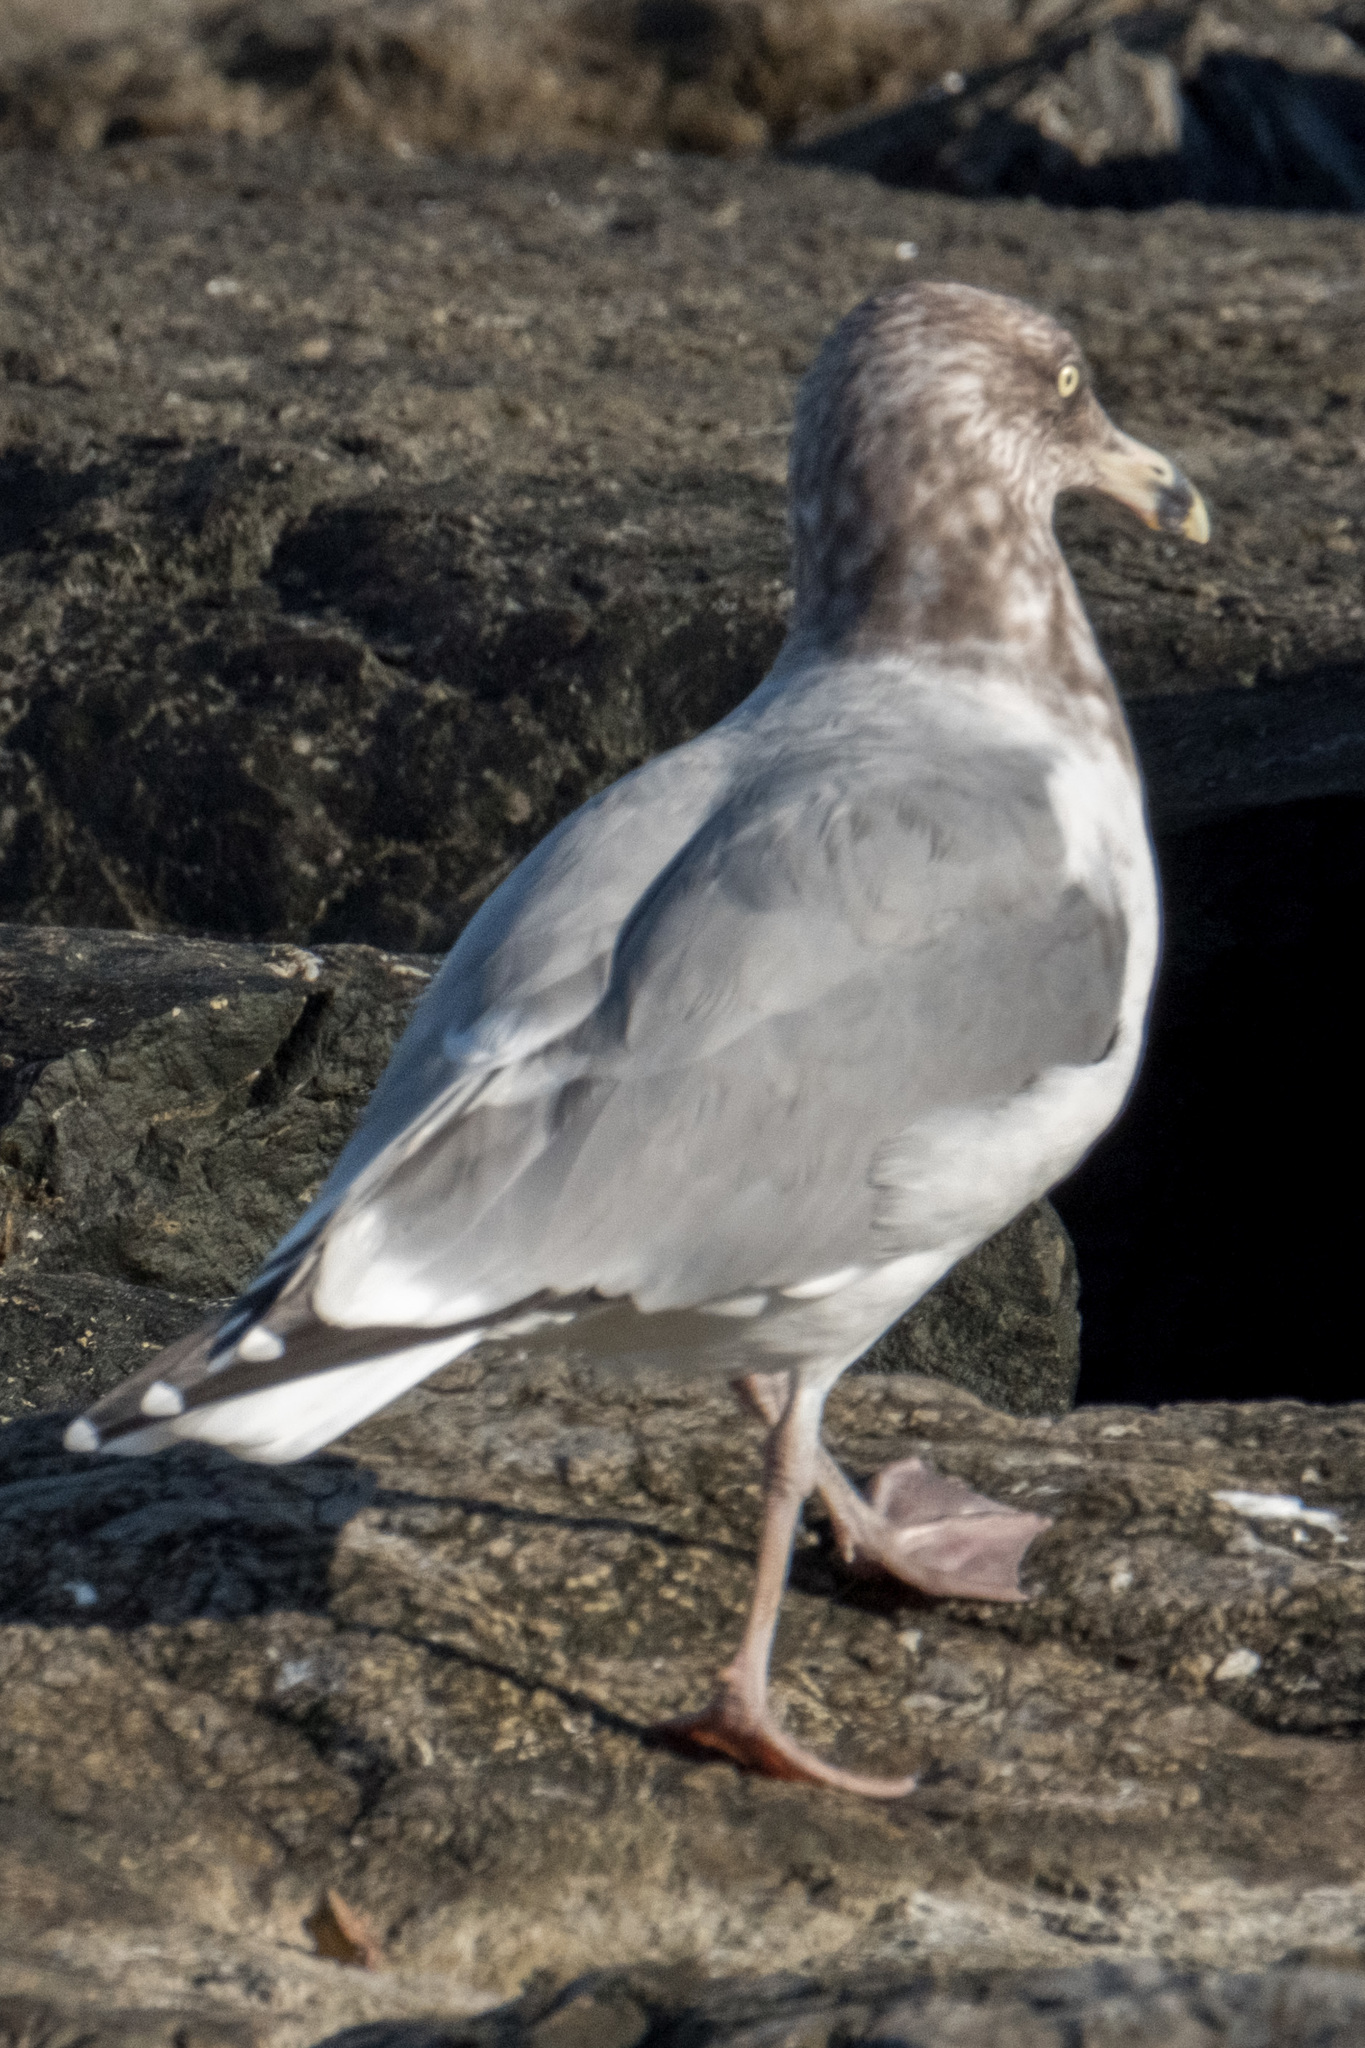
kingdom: Animalia
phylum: Chordata
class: Aves
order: Charadriiformes
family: Laridae
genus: Larus
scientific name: Larus argentatus
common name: Herring gull
